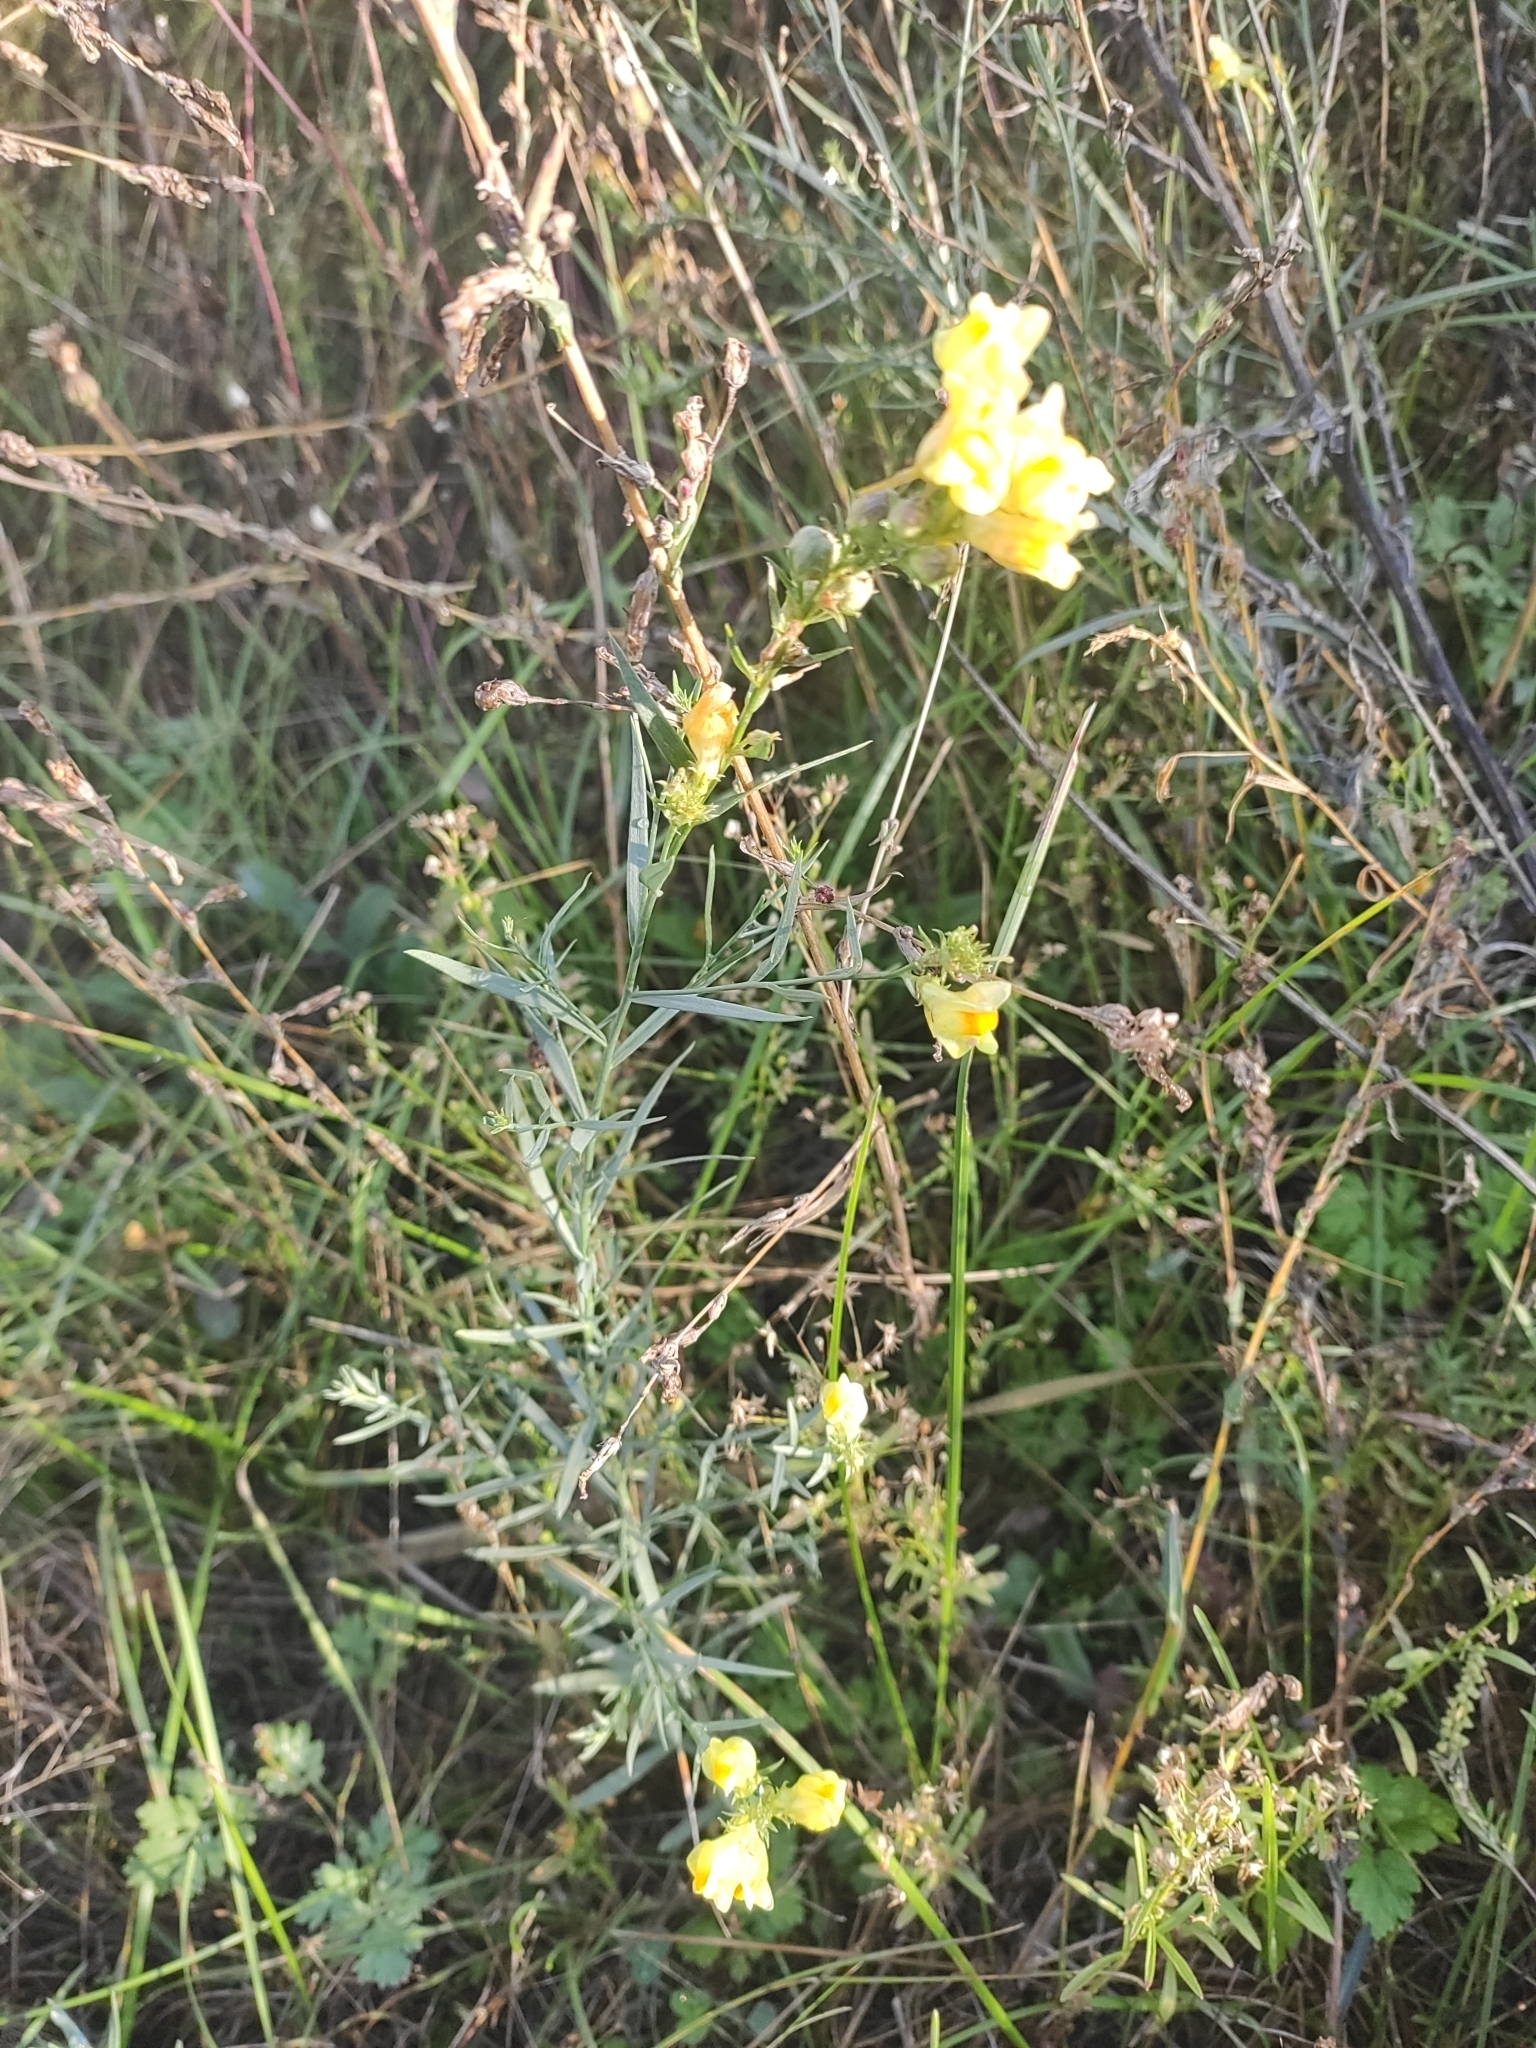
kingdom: Plantae
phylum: Tracheophyta
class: Magnoliopsida
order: Lamiales
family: Plantaginaceae
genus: Linaria
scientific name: Linaria vulgaris
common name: Butter and eggs
